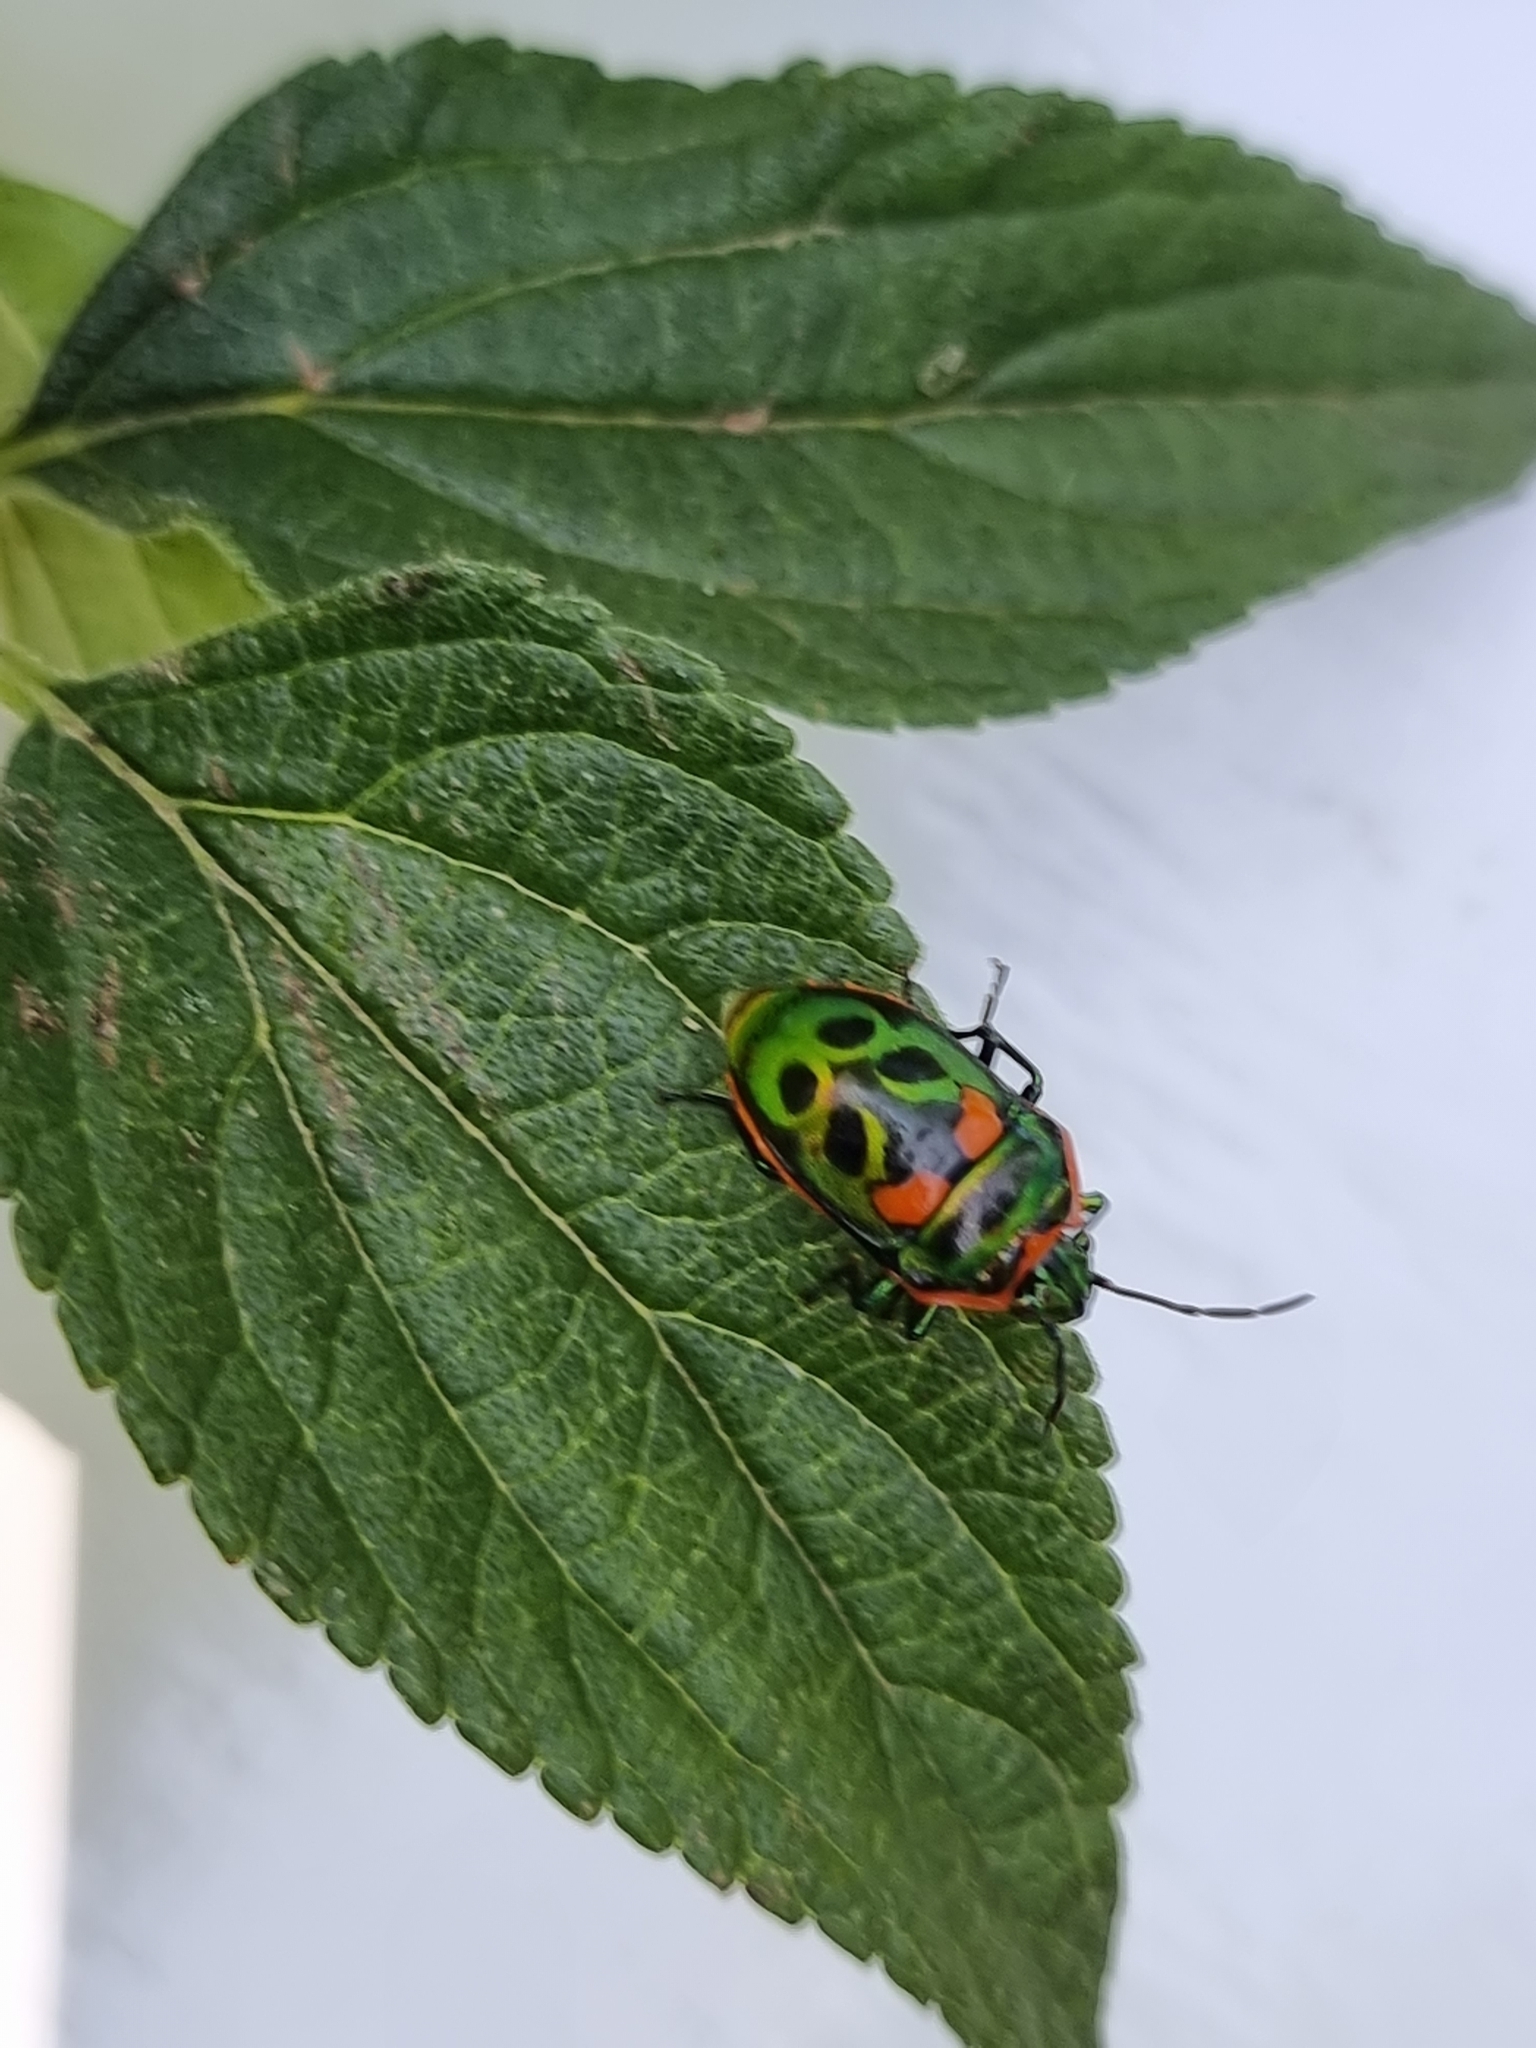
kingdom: Animalia
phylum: Arthropoda
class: Insecta
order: Hemiptera
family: Scutelleridae
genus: Scutiphora
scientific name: Scutiphora pedicellata
